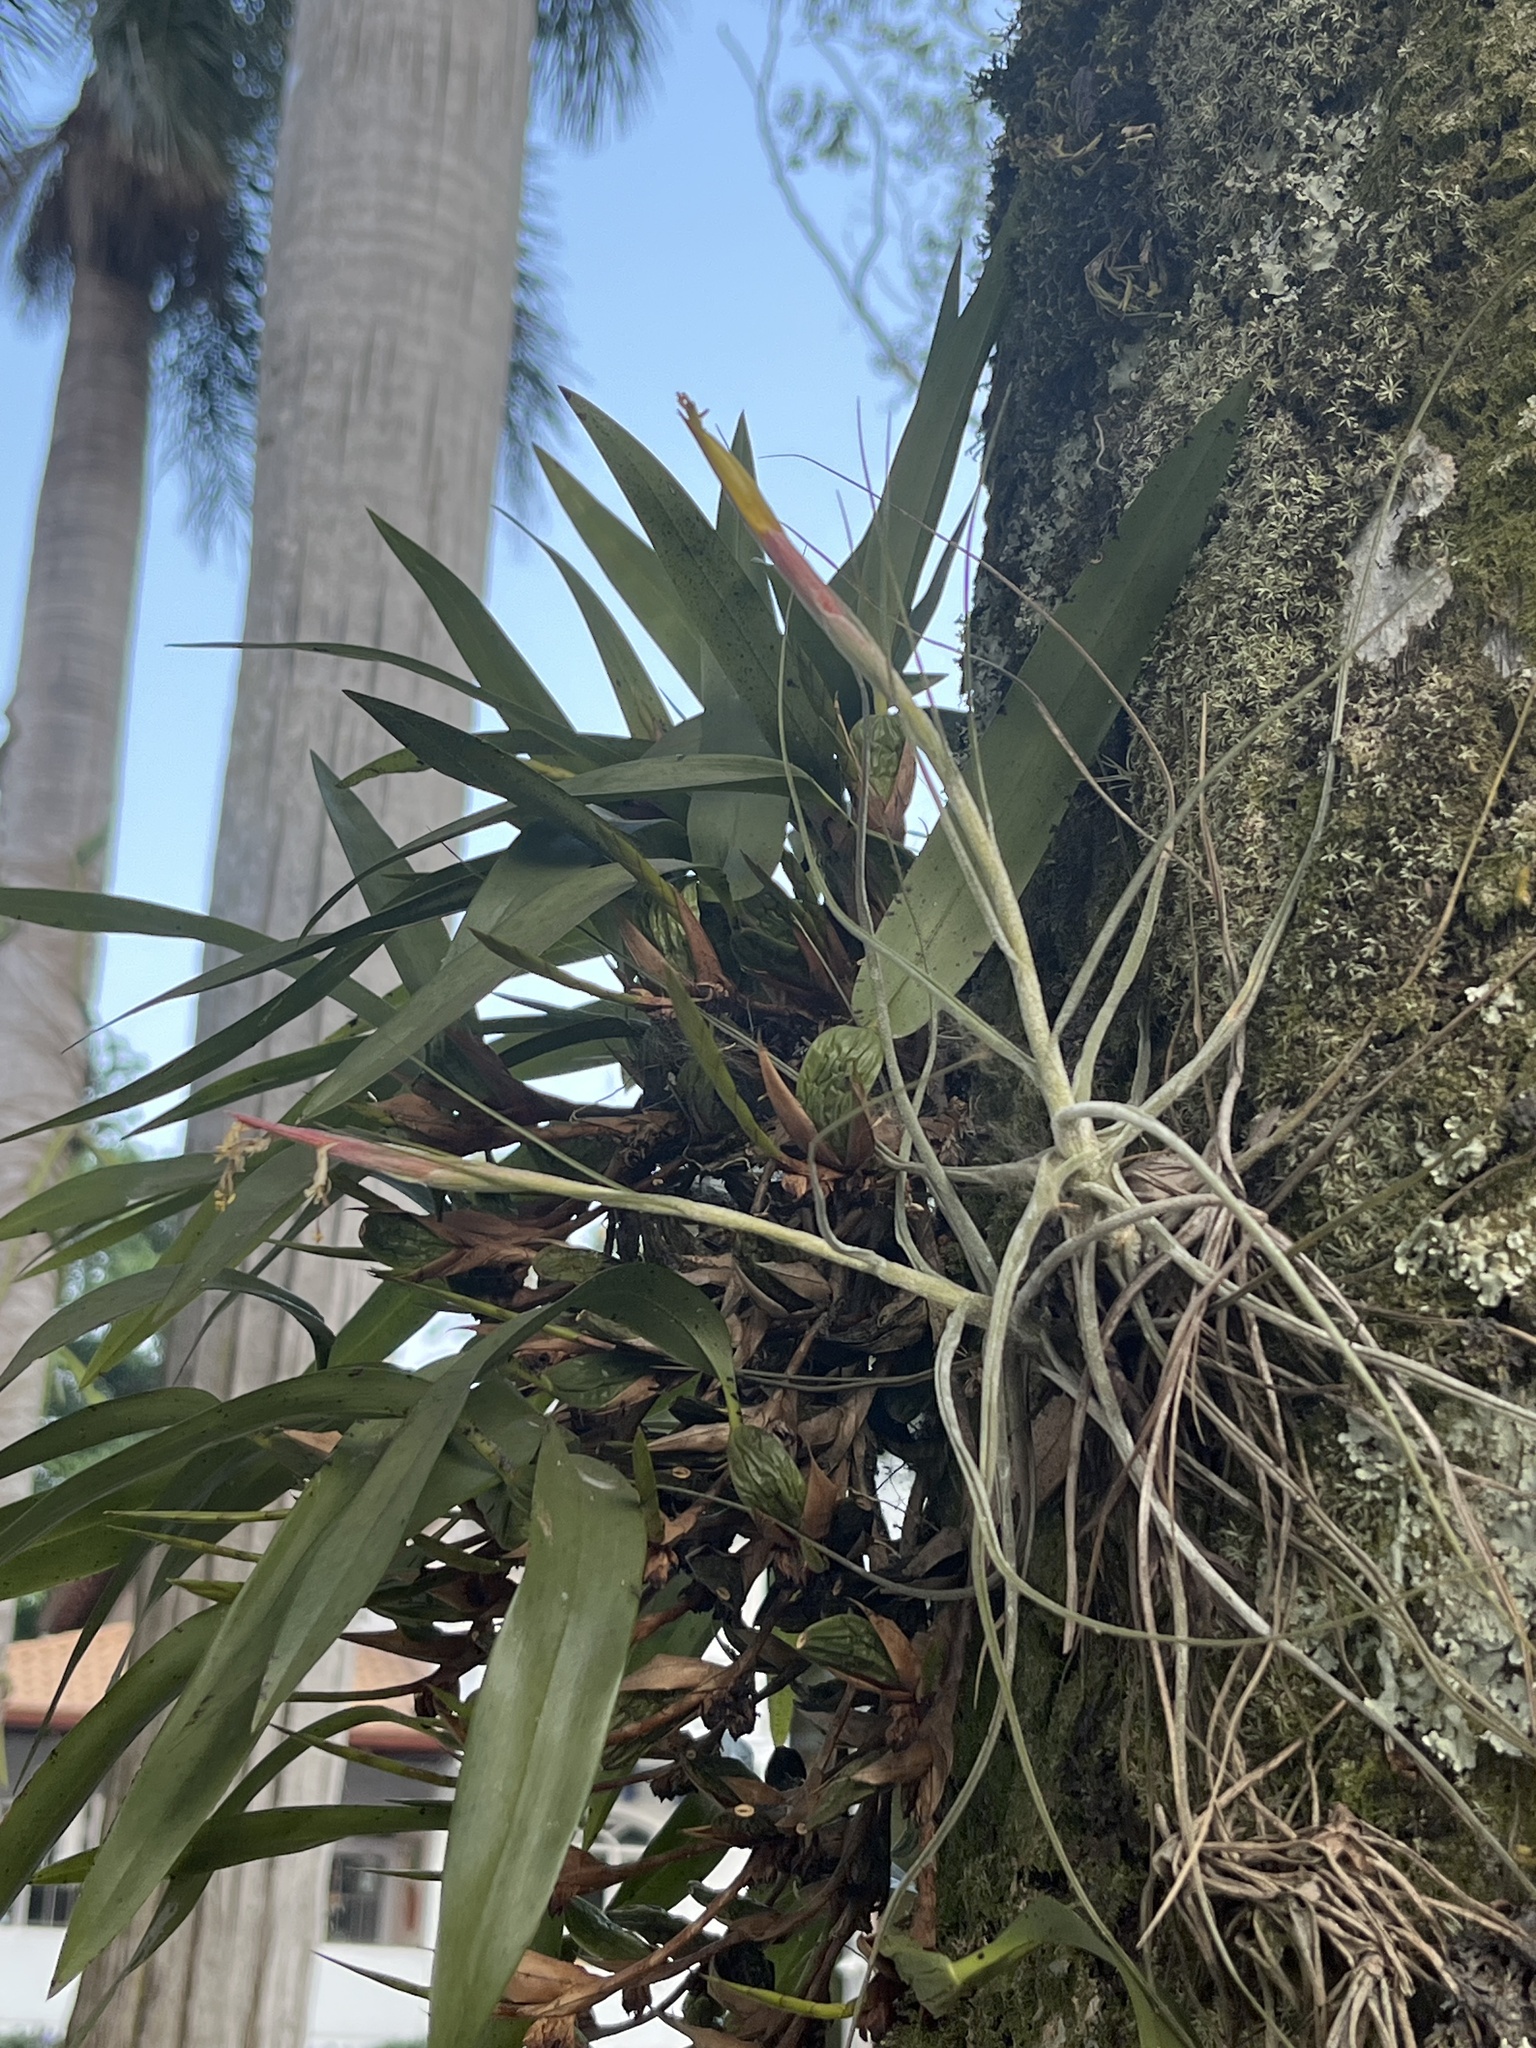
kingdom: Plantae
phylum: Tracheophyta
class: Liliopsida
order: Poales
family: Bromeliaceae
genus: Tillandsia
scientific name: Tillandsia schiedeana
